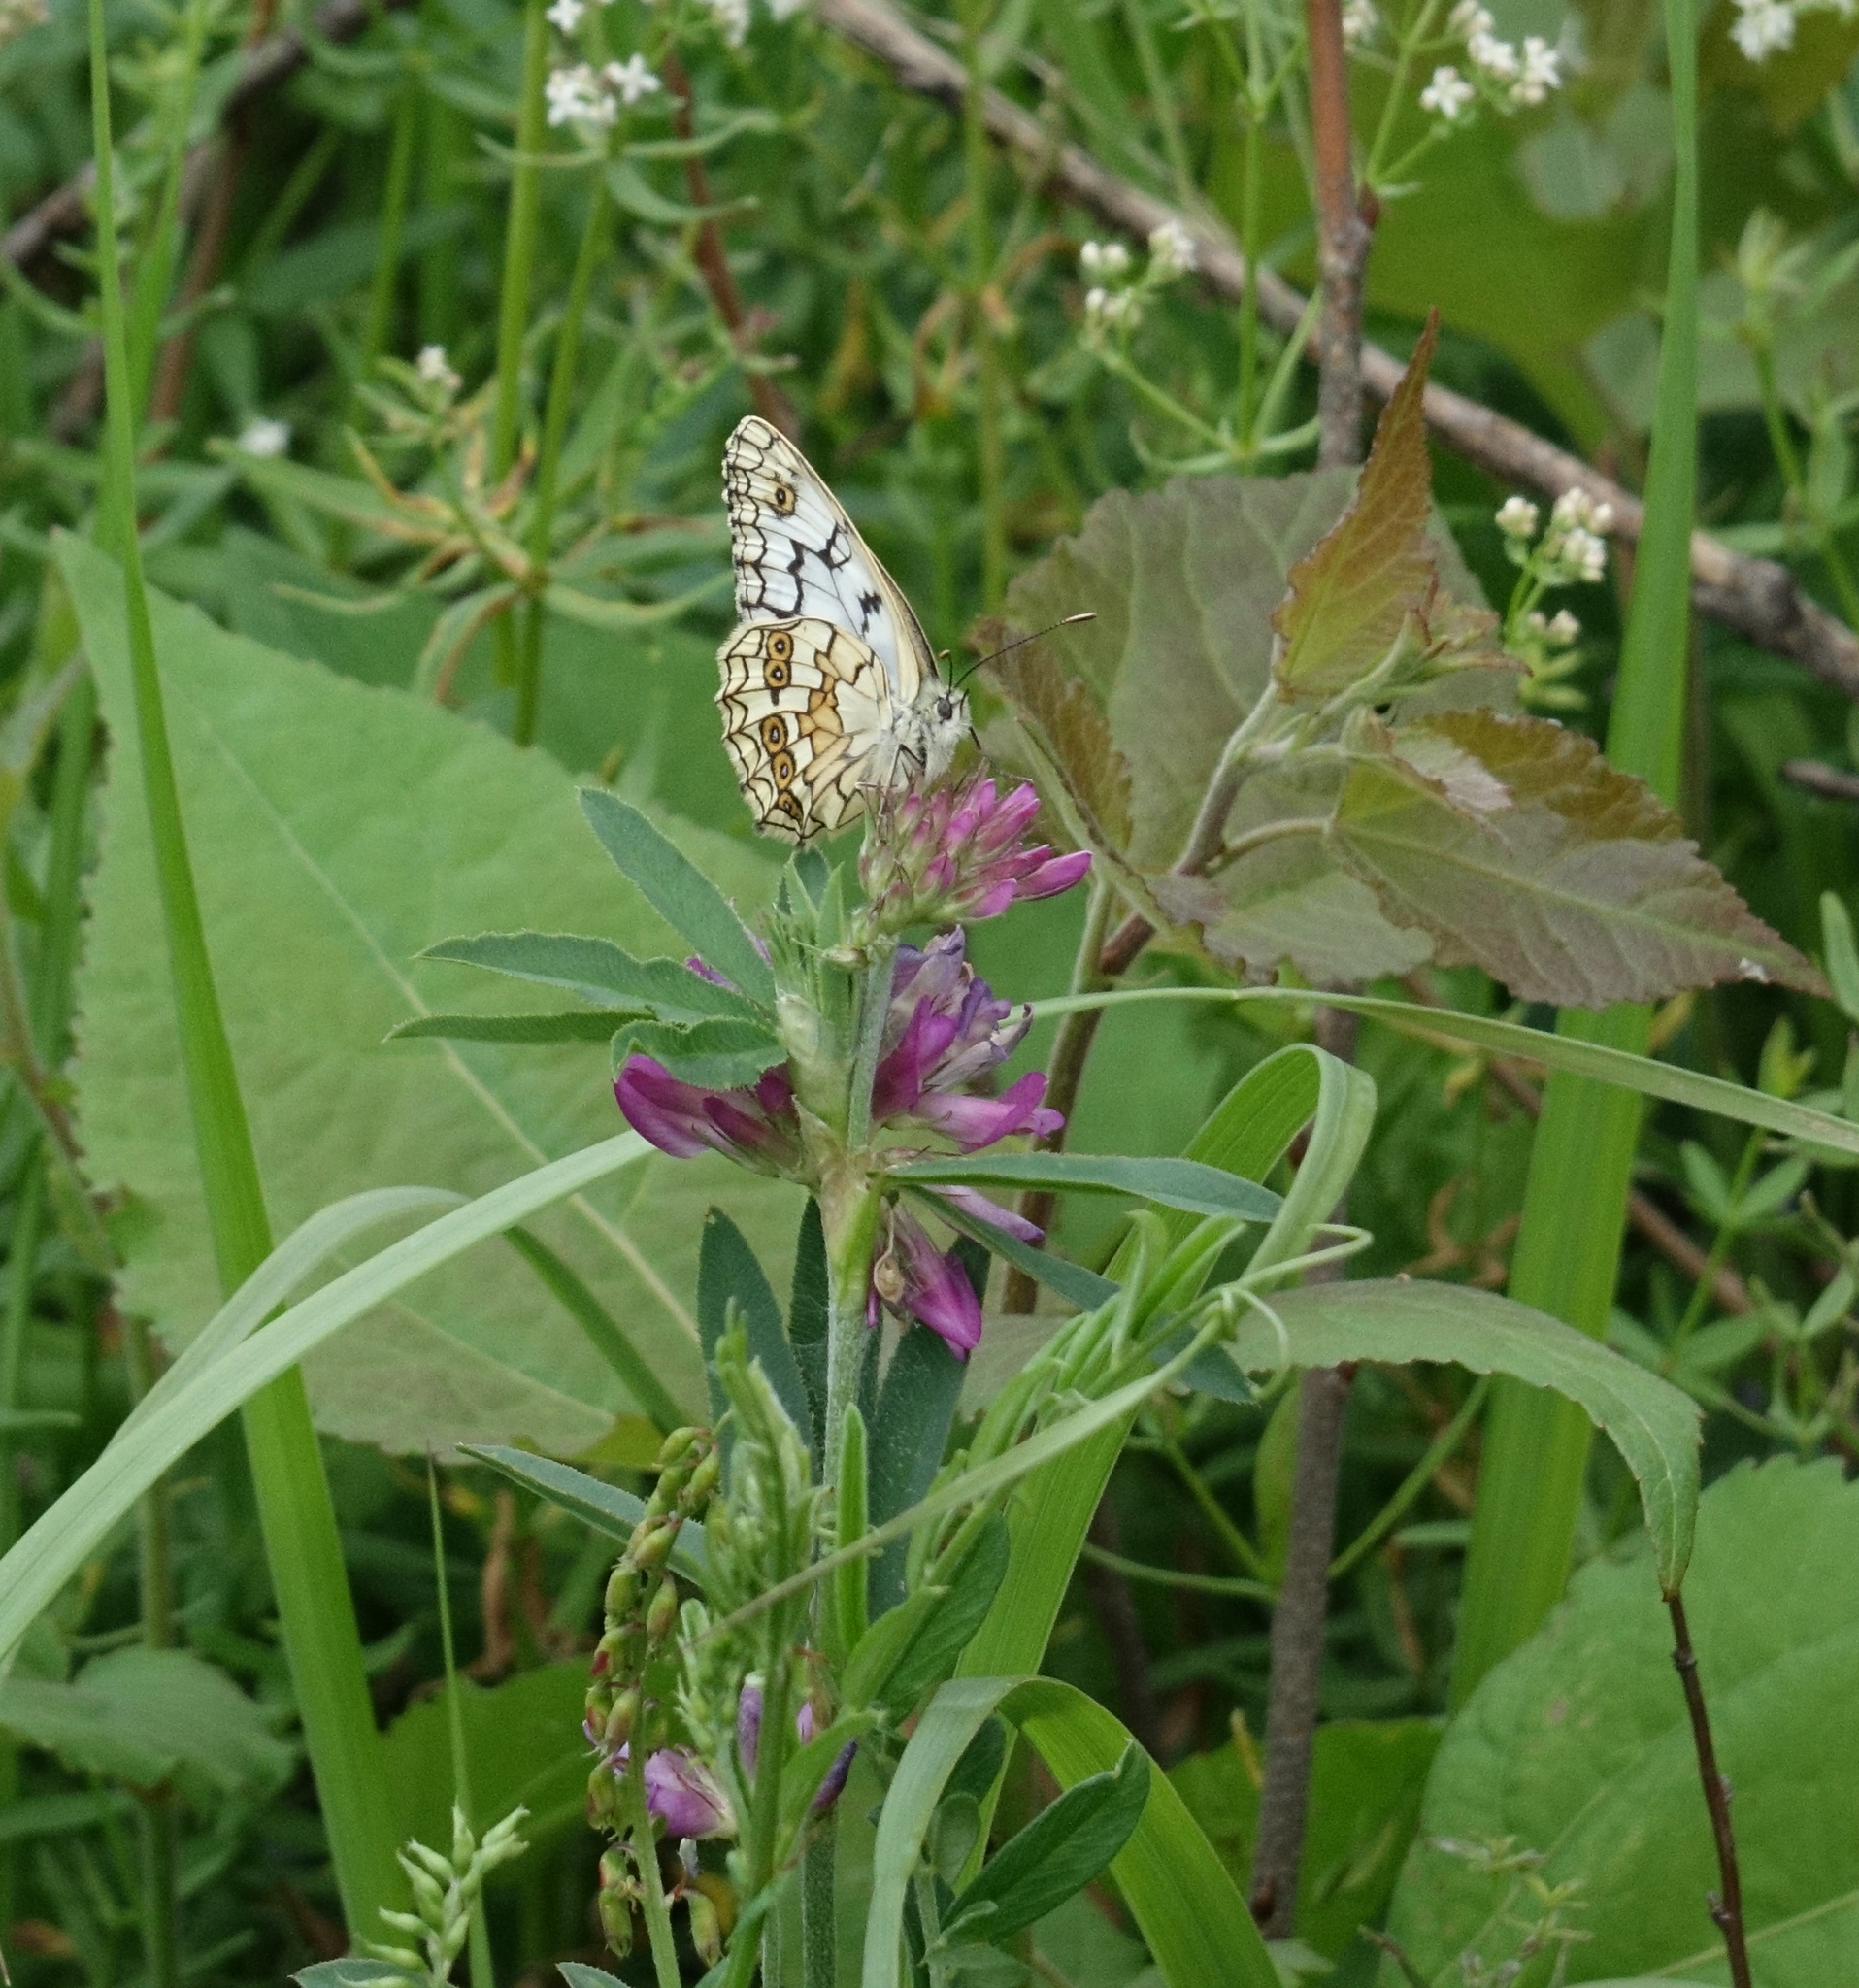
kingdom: Plantae
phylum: Tracheophyta
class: Magnoliopsida
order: Fabales
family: Fabaceae
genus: Trifolium
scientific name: Trifolium lupinaster
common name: Lupine clover
